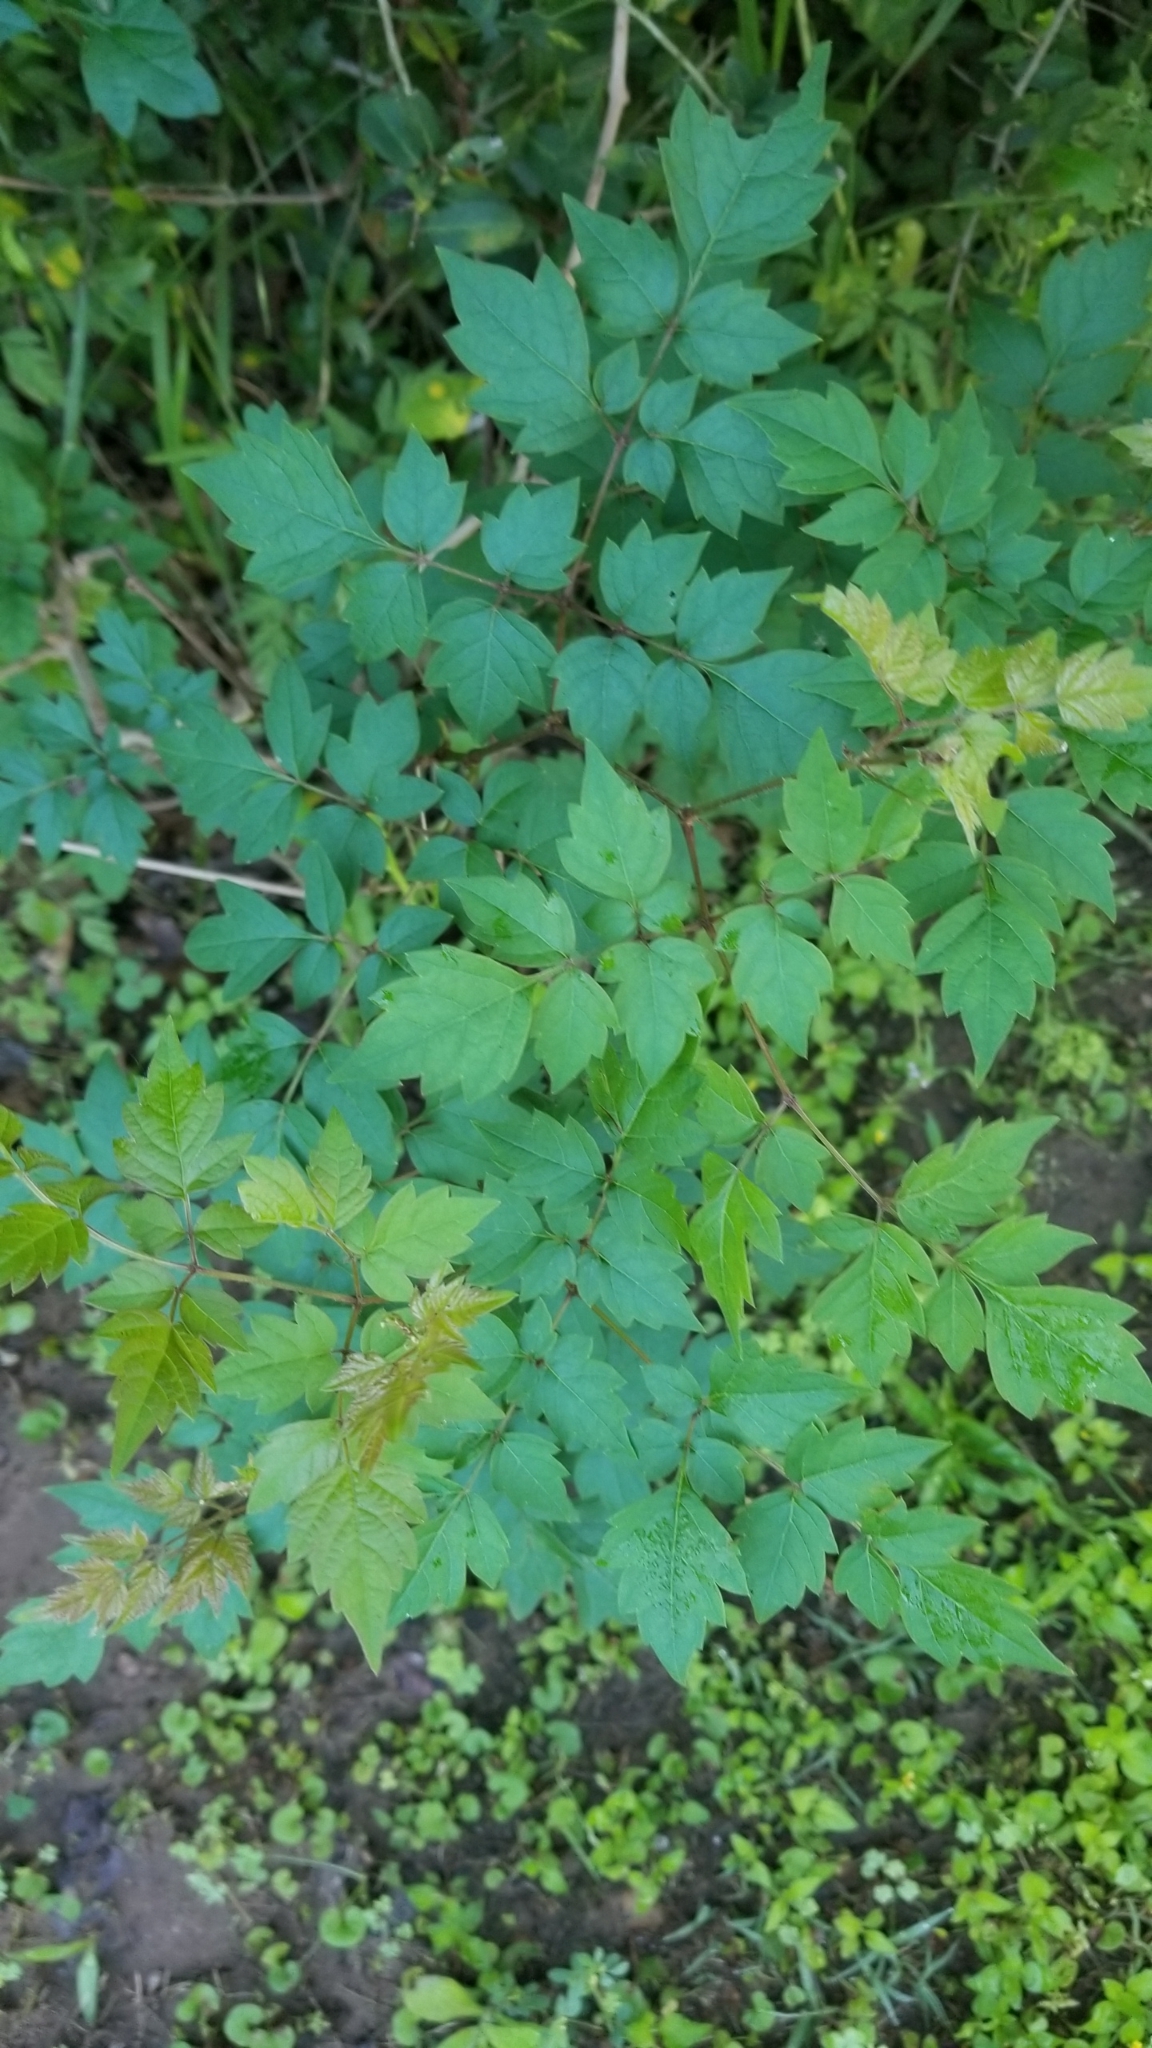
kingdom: Plantae
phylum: Tracheophyta
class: Magnoliopsida
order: Vitales
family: Vitaceae
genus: Nekemias
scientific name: Nekemias arborea
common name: Peppervine
